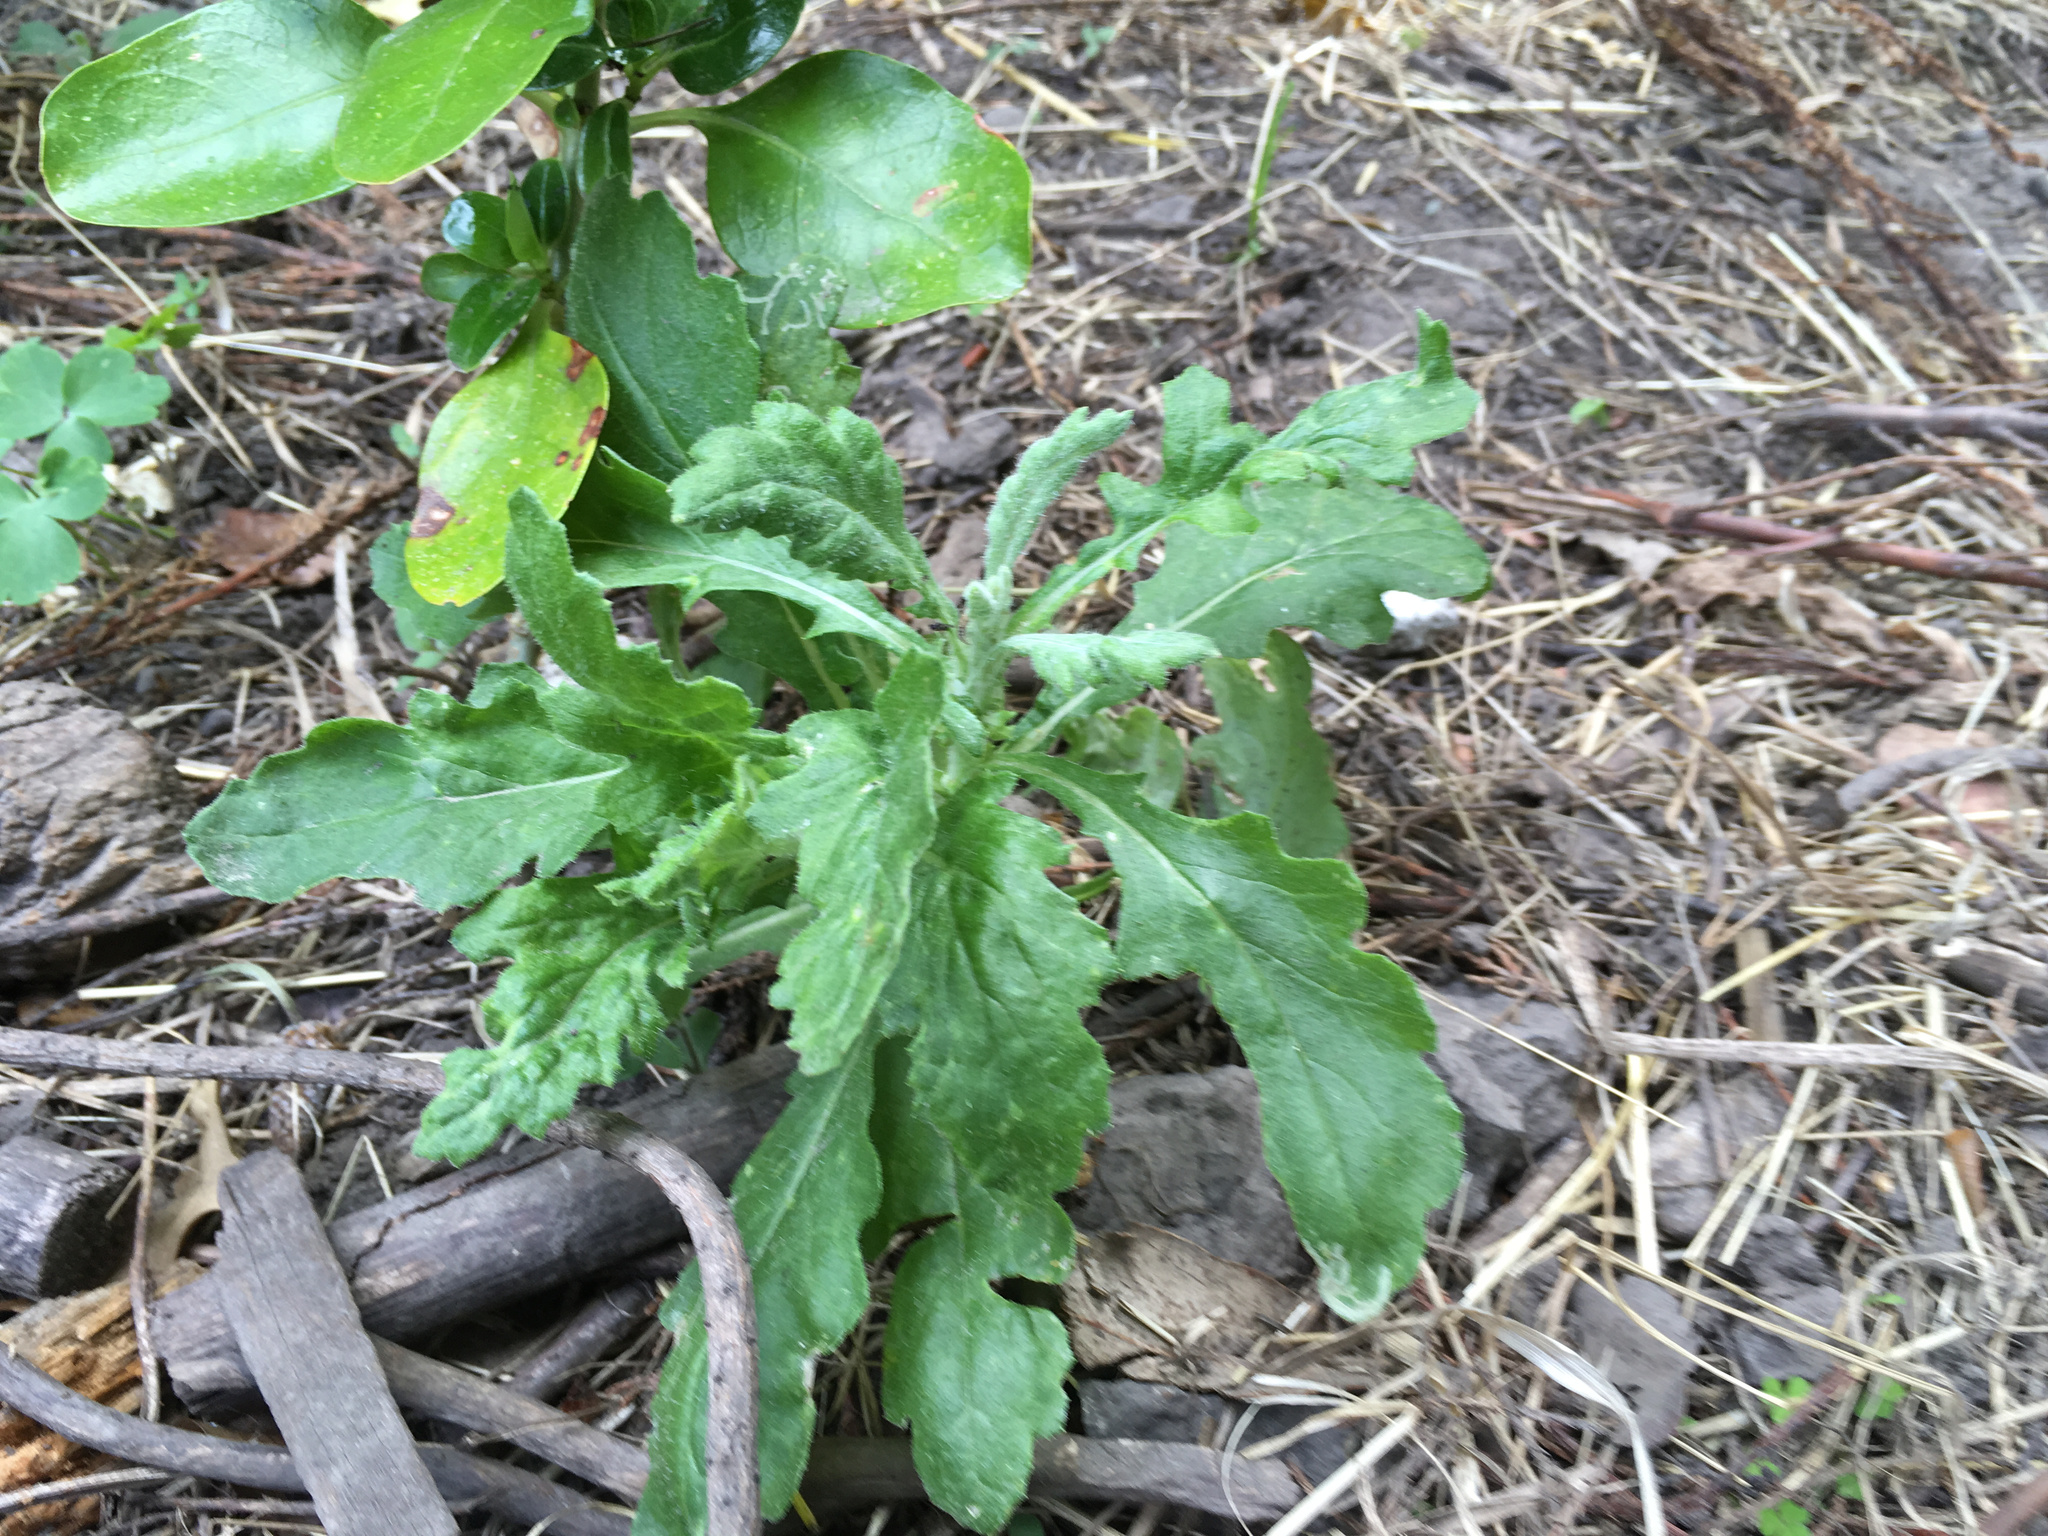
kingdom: Plantae
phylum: Tracheophyta
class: Magnoliopsida
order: Asterales
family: Asteraceae
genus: Senecio
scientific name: Senecio glomeratus
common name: Cutleaf burnweed
